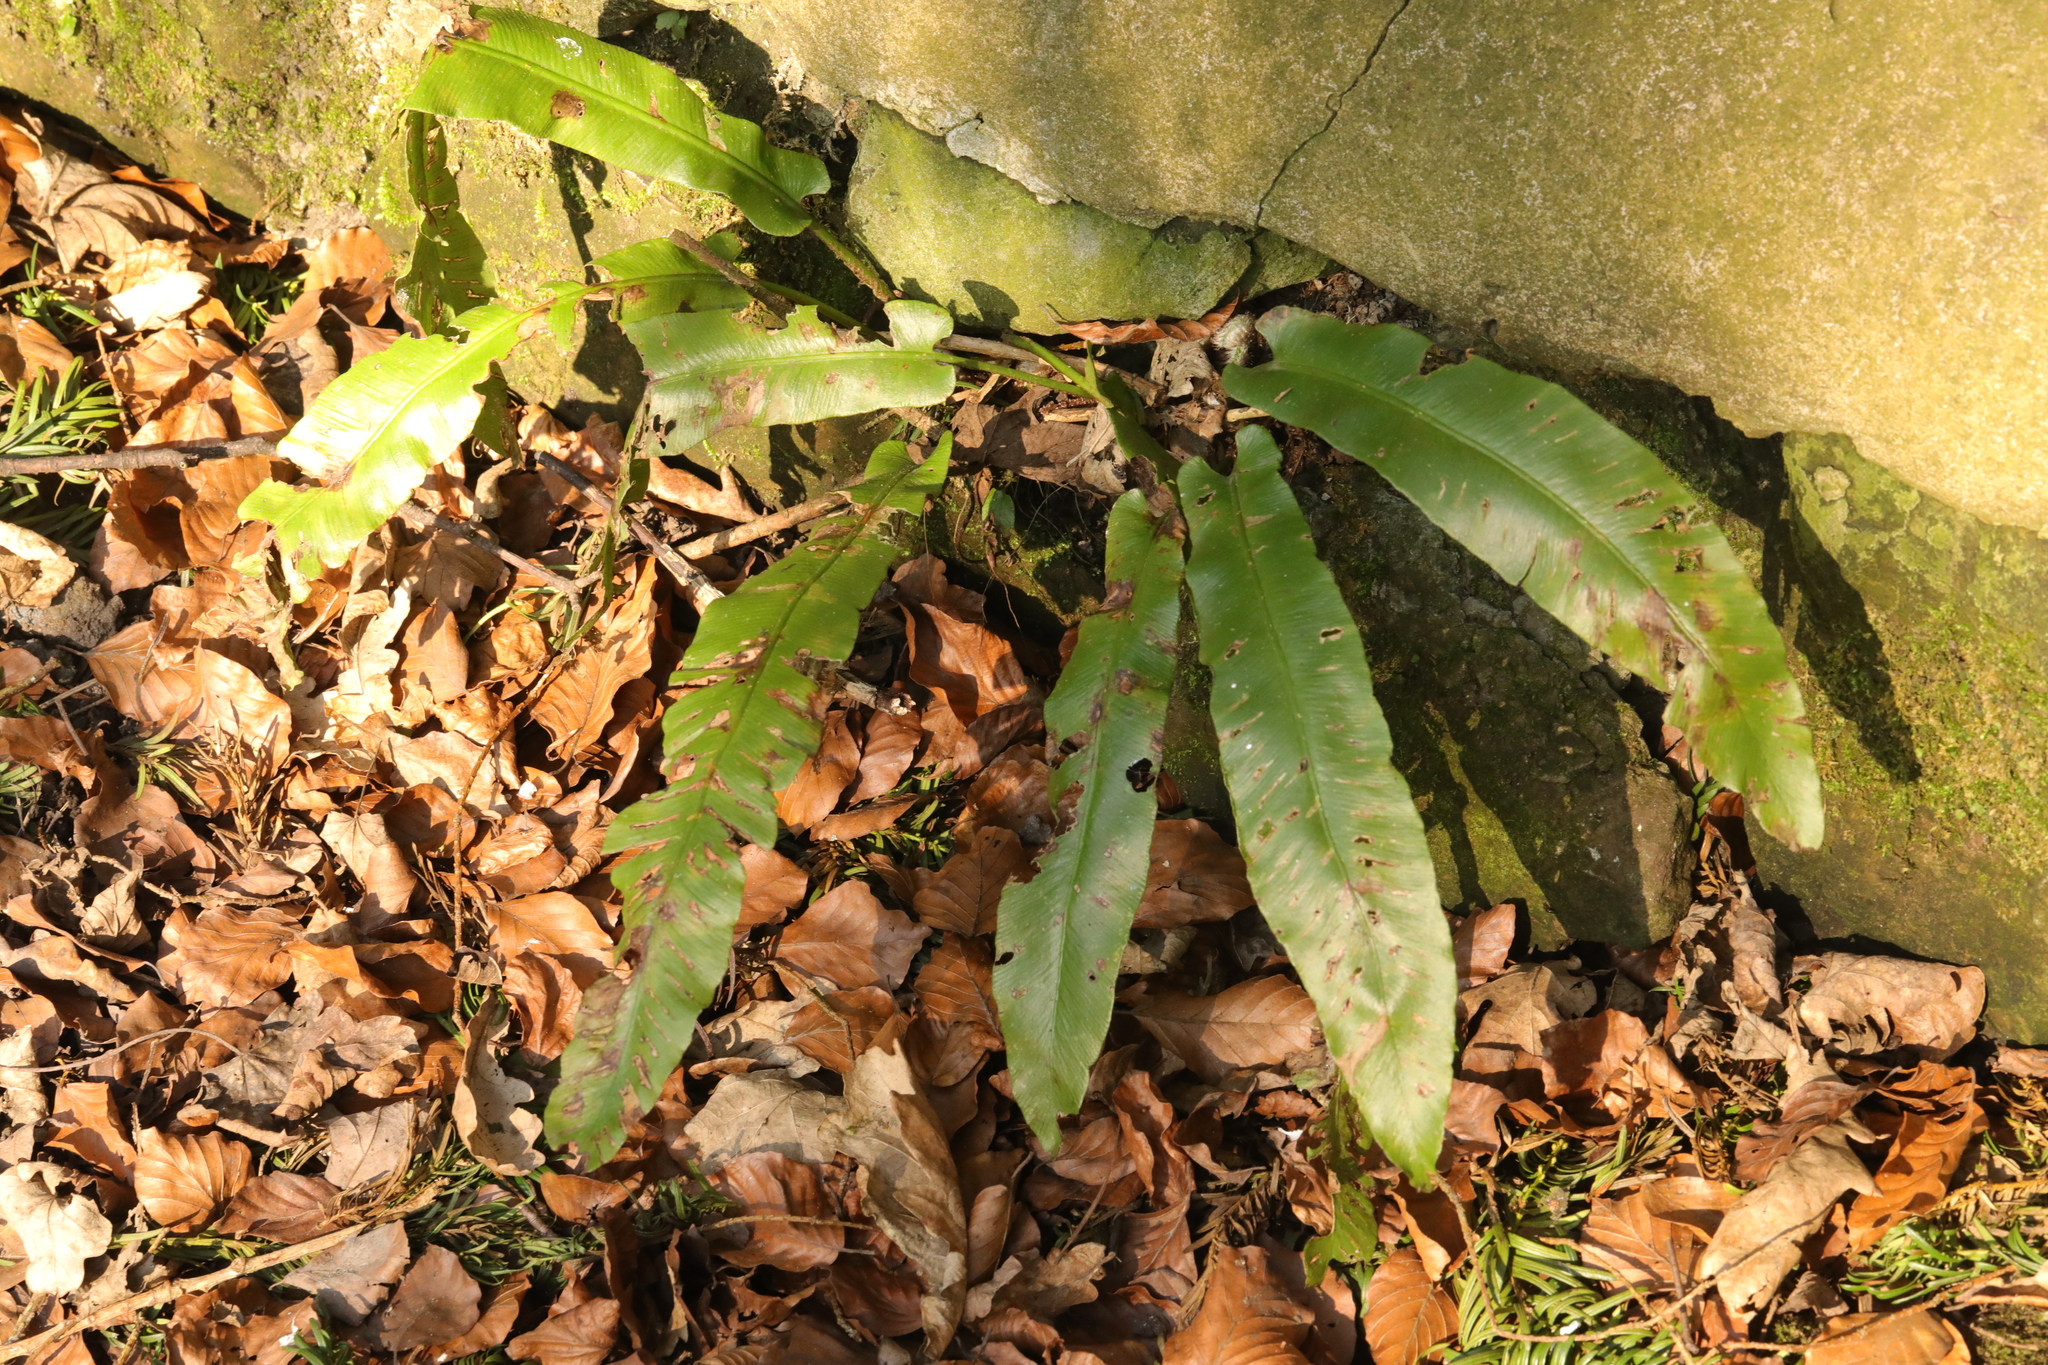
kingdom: Plantae
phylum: Tracheophyta
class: Polypodiopsida
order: Polypodiales
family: Aspleniaceae
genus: Asplenium
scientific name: Asplenium scolopendrium
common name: Hart's-tongue fern
